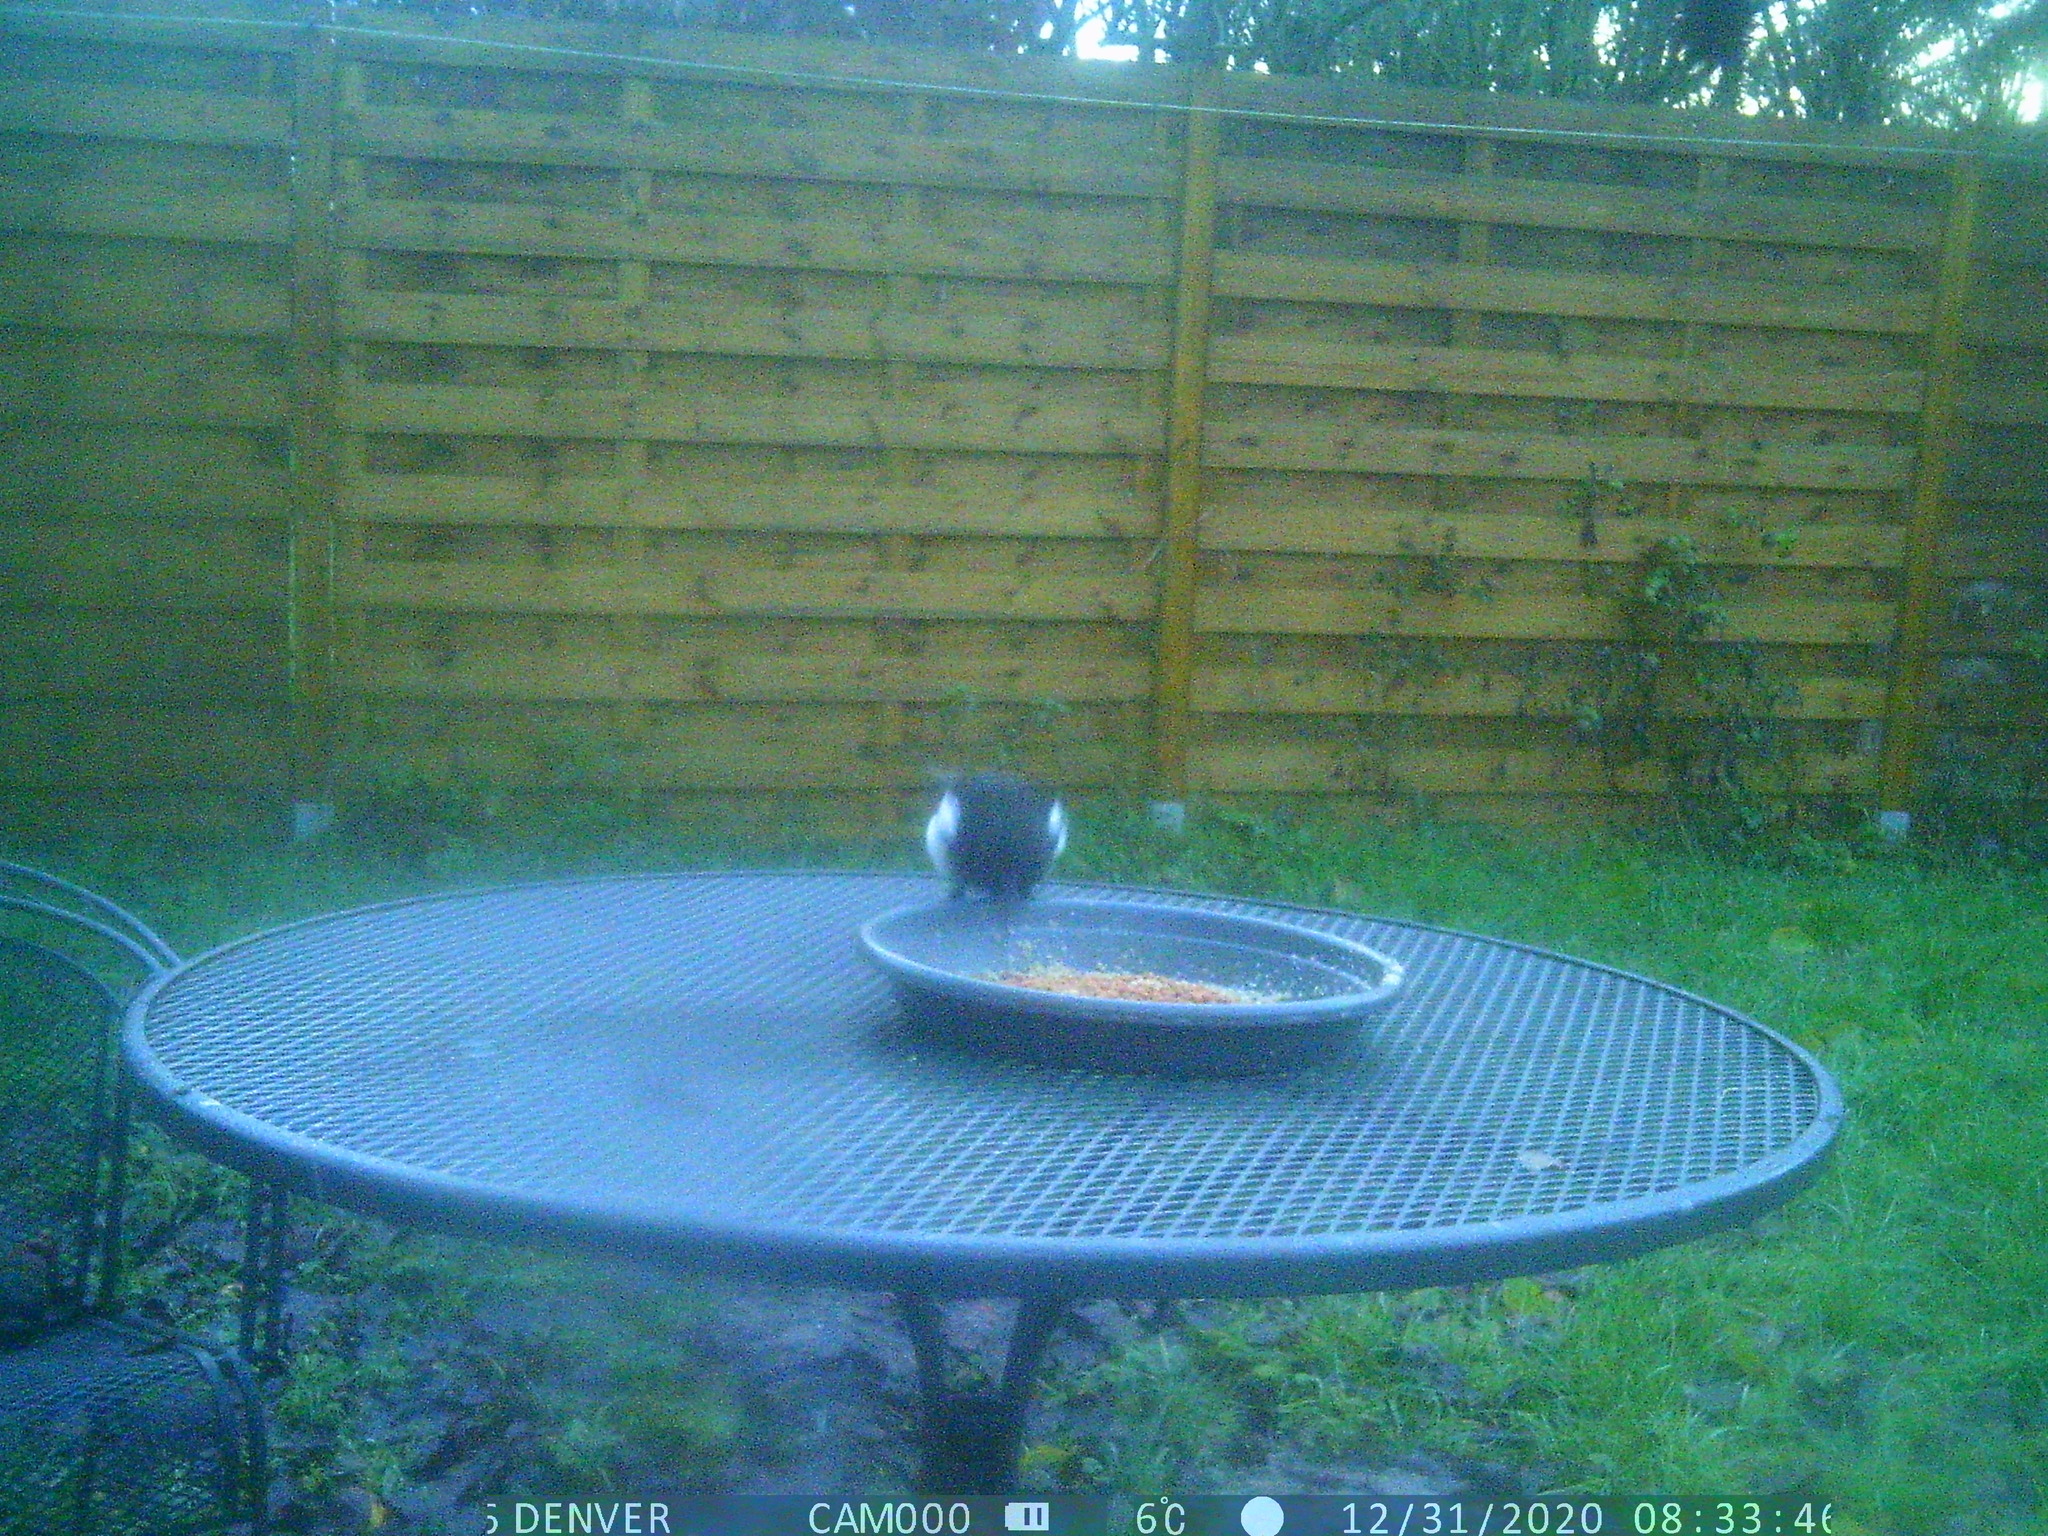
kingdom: Animalia
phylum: Chordata
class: Aves
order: Passeriformes
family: Corvidae
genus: Pica
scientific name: Pica pica
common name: Eurasian magpie
